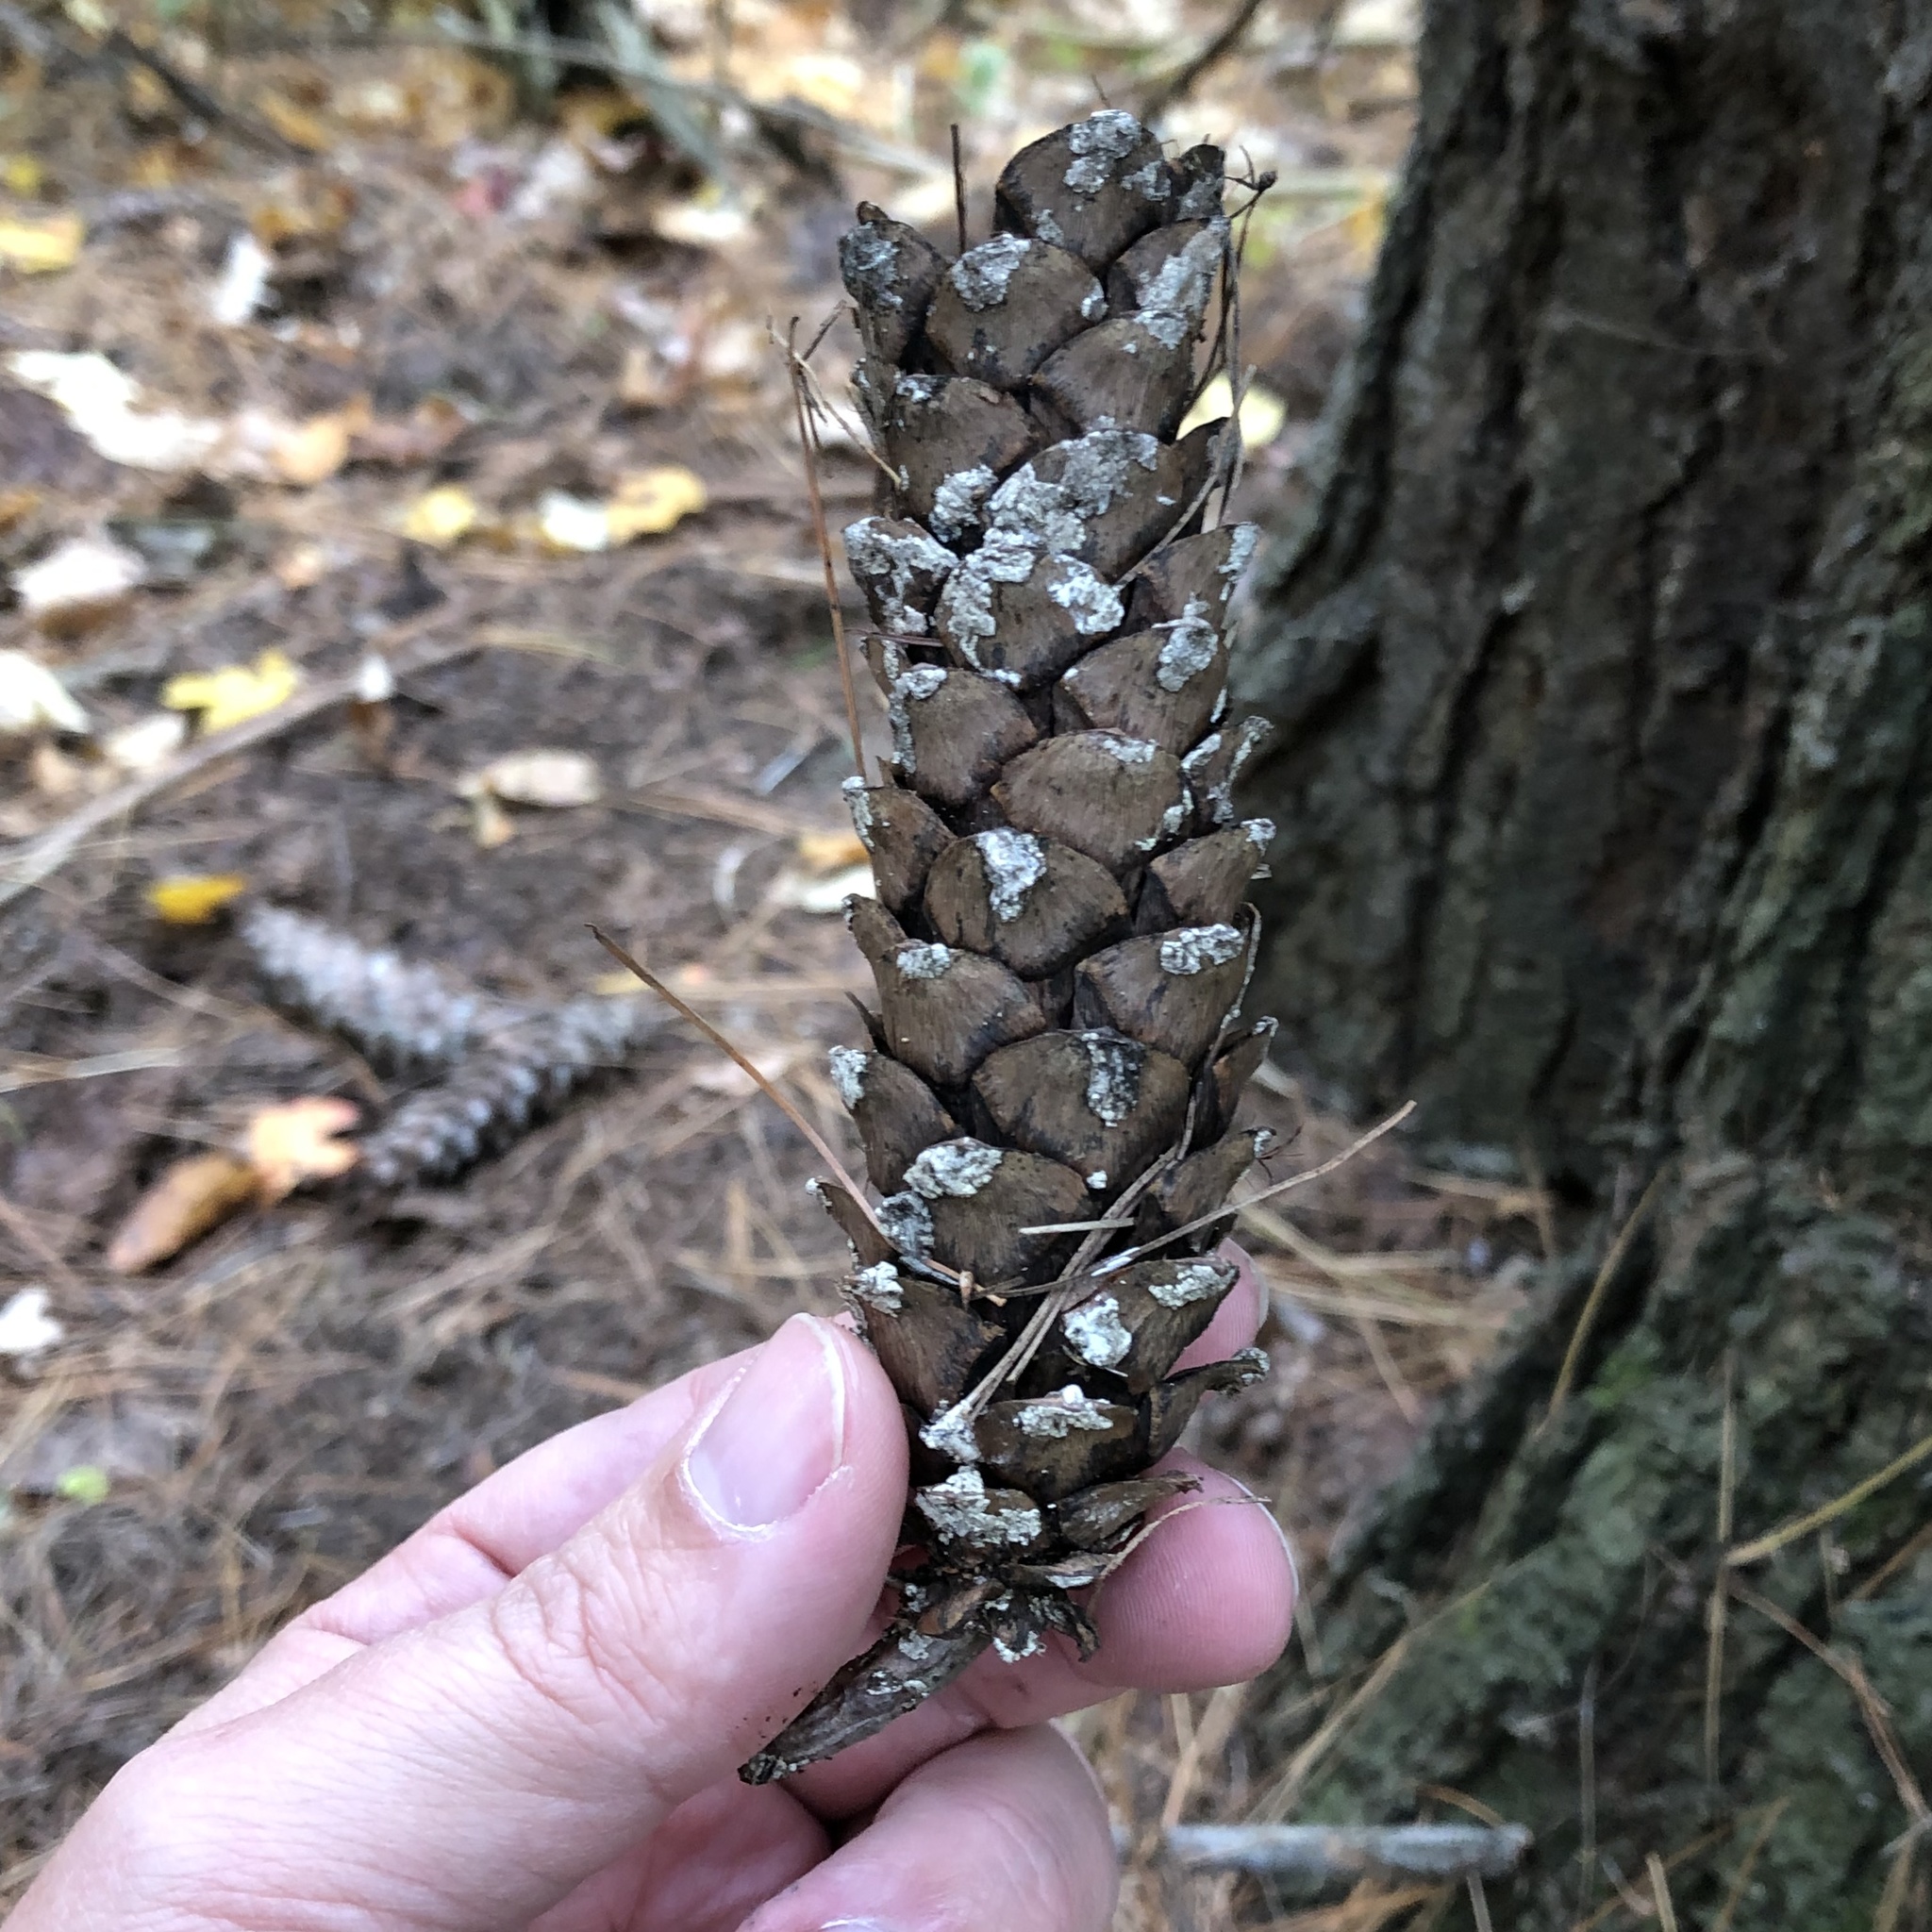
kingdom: Plantae
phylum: Tracheophyta
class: Pinopsida
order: Pinales
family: Pinaceae
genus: Pinus
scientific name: Pinus strobus
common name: Weymouth pine
